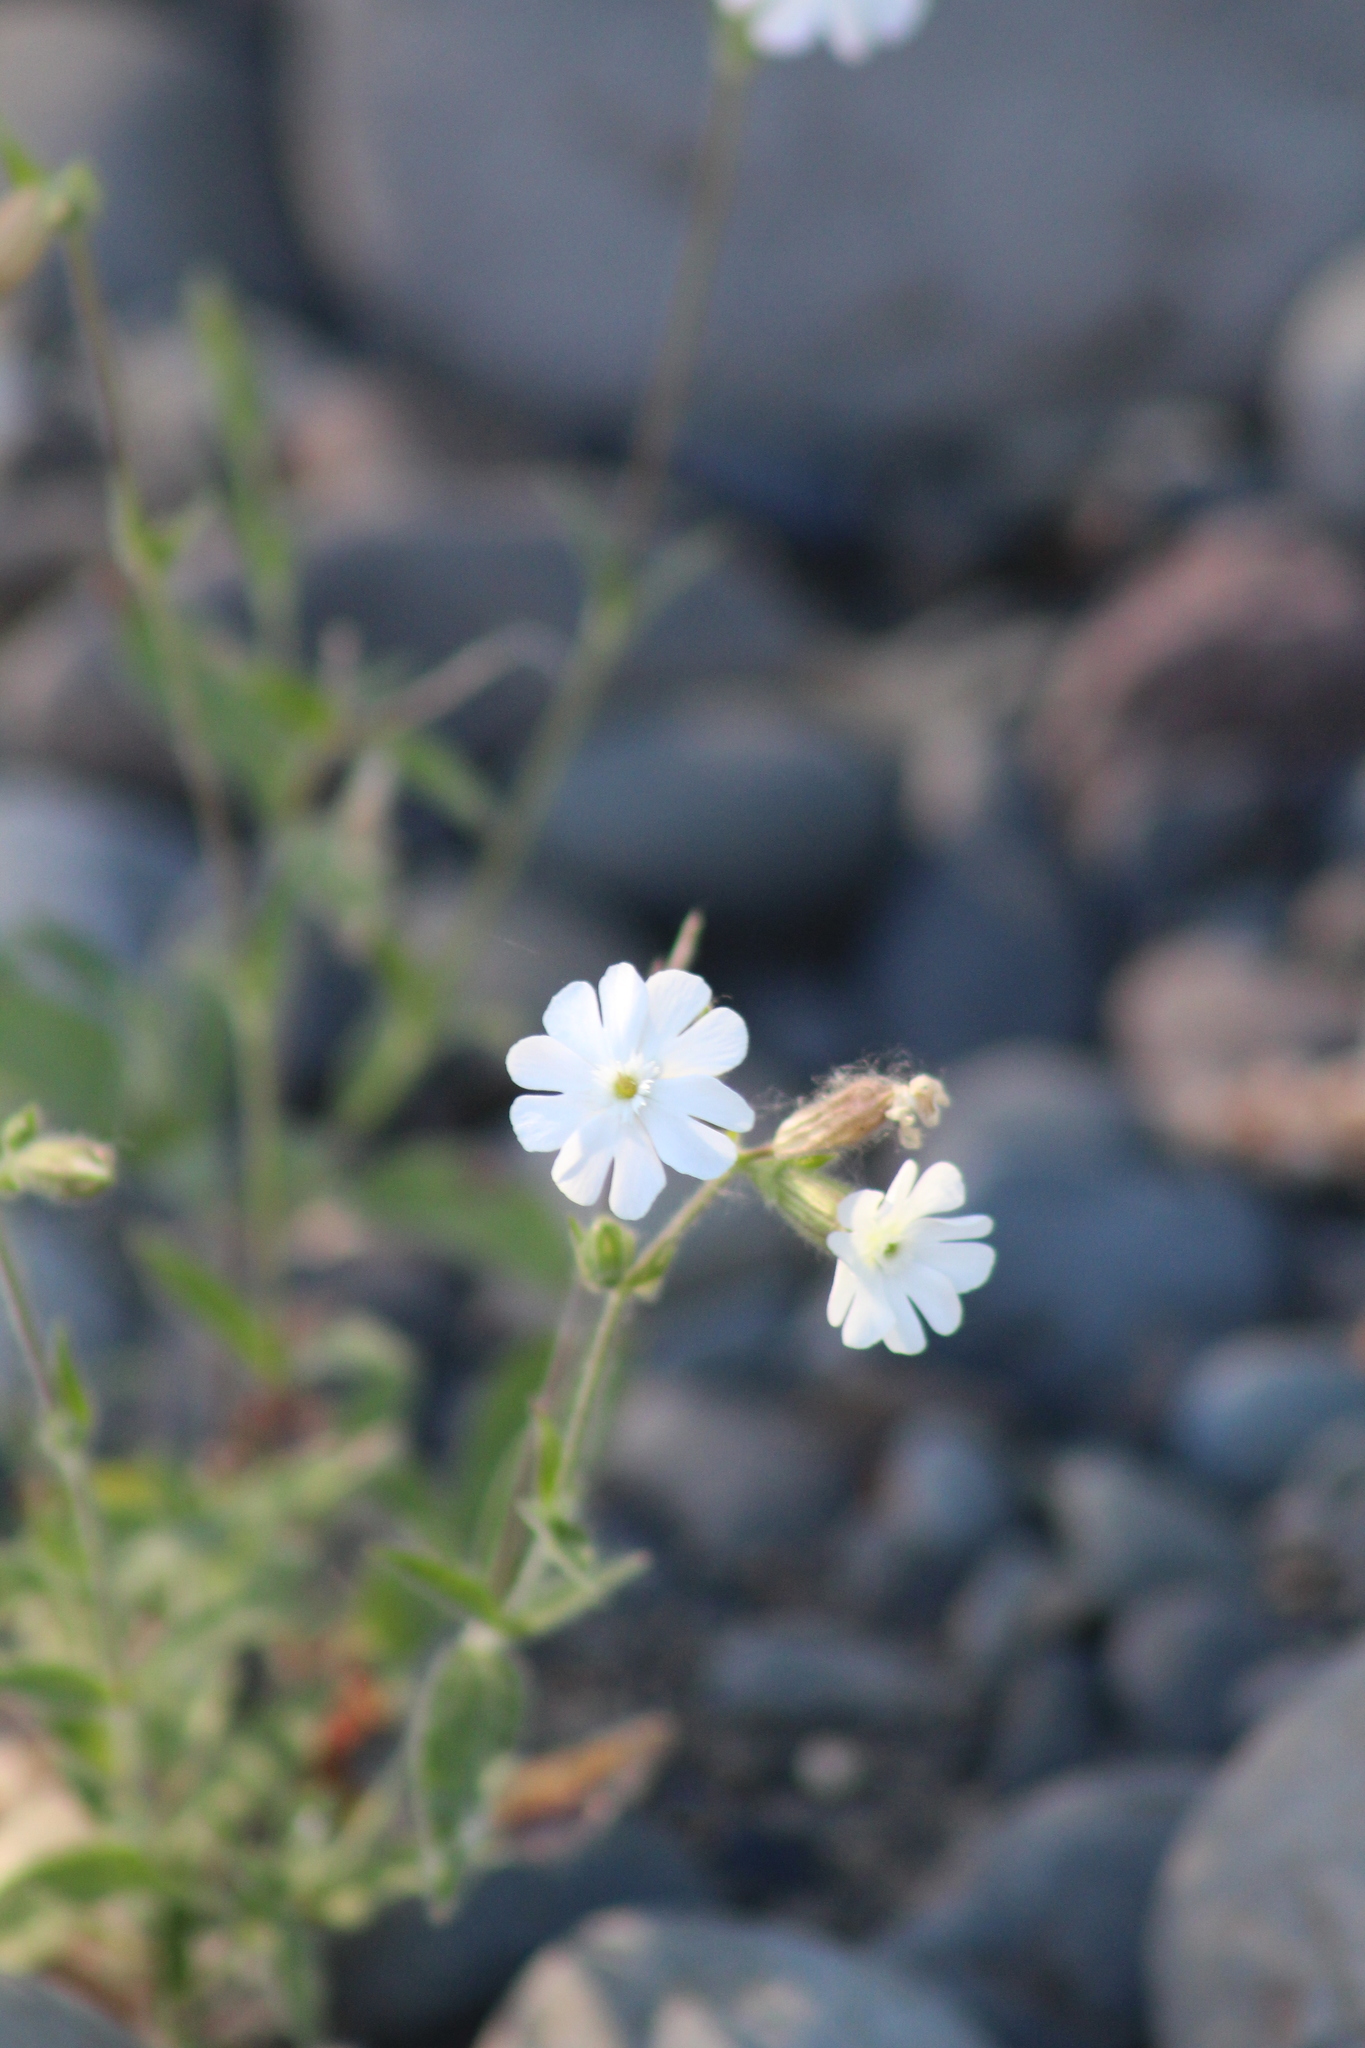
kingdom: Plantae
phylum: Tracheophyta
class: Magnoliopsida
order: Caryophyllales
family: Caryophyllaceae
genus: Silene
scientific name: Silene latifolia
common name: White campion
